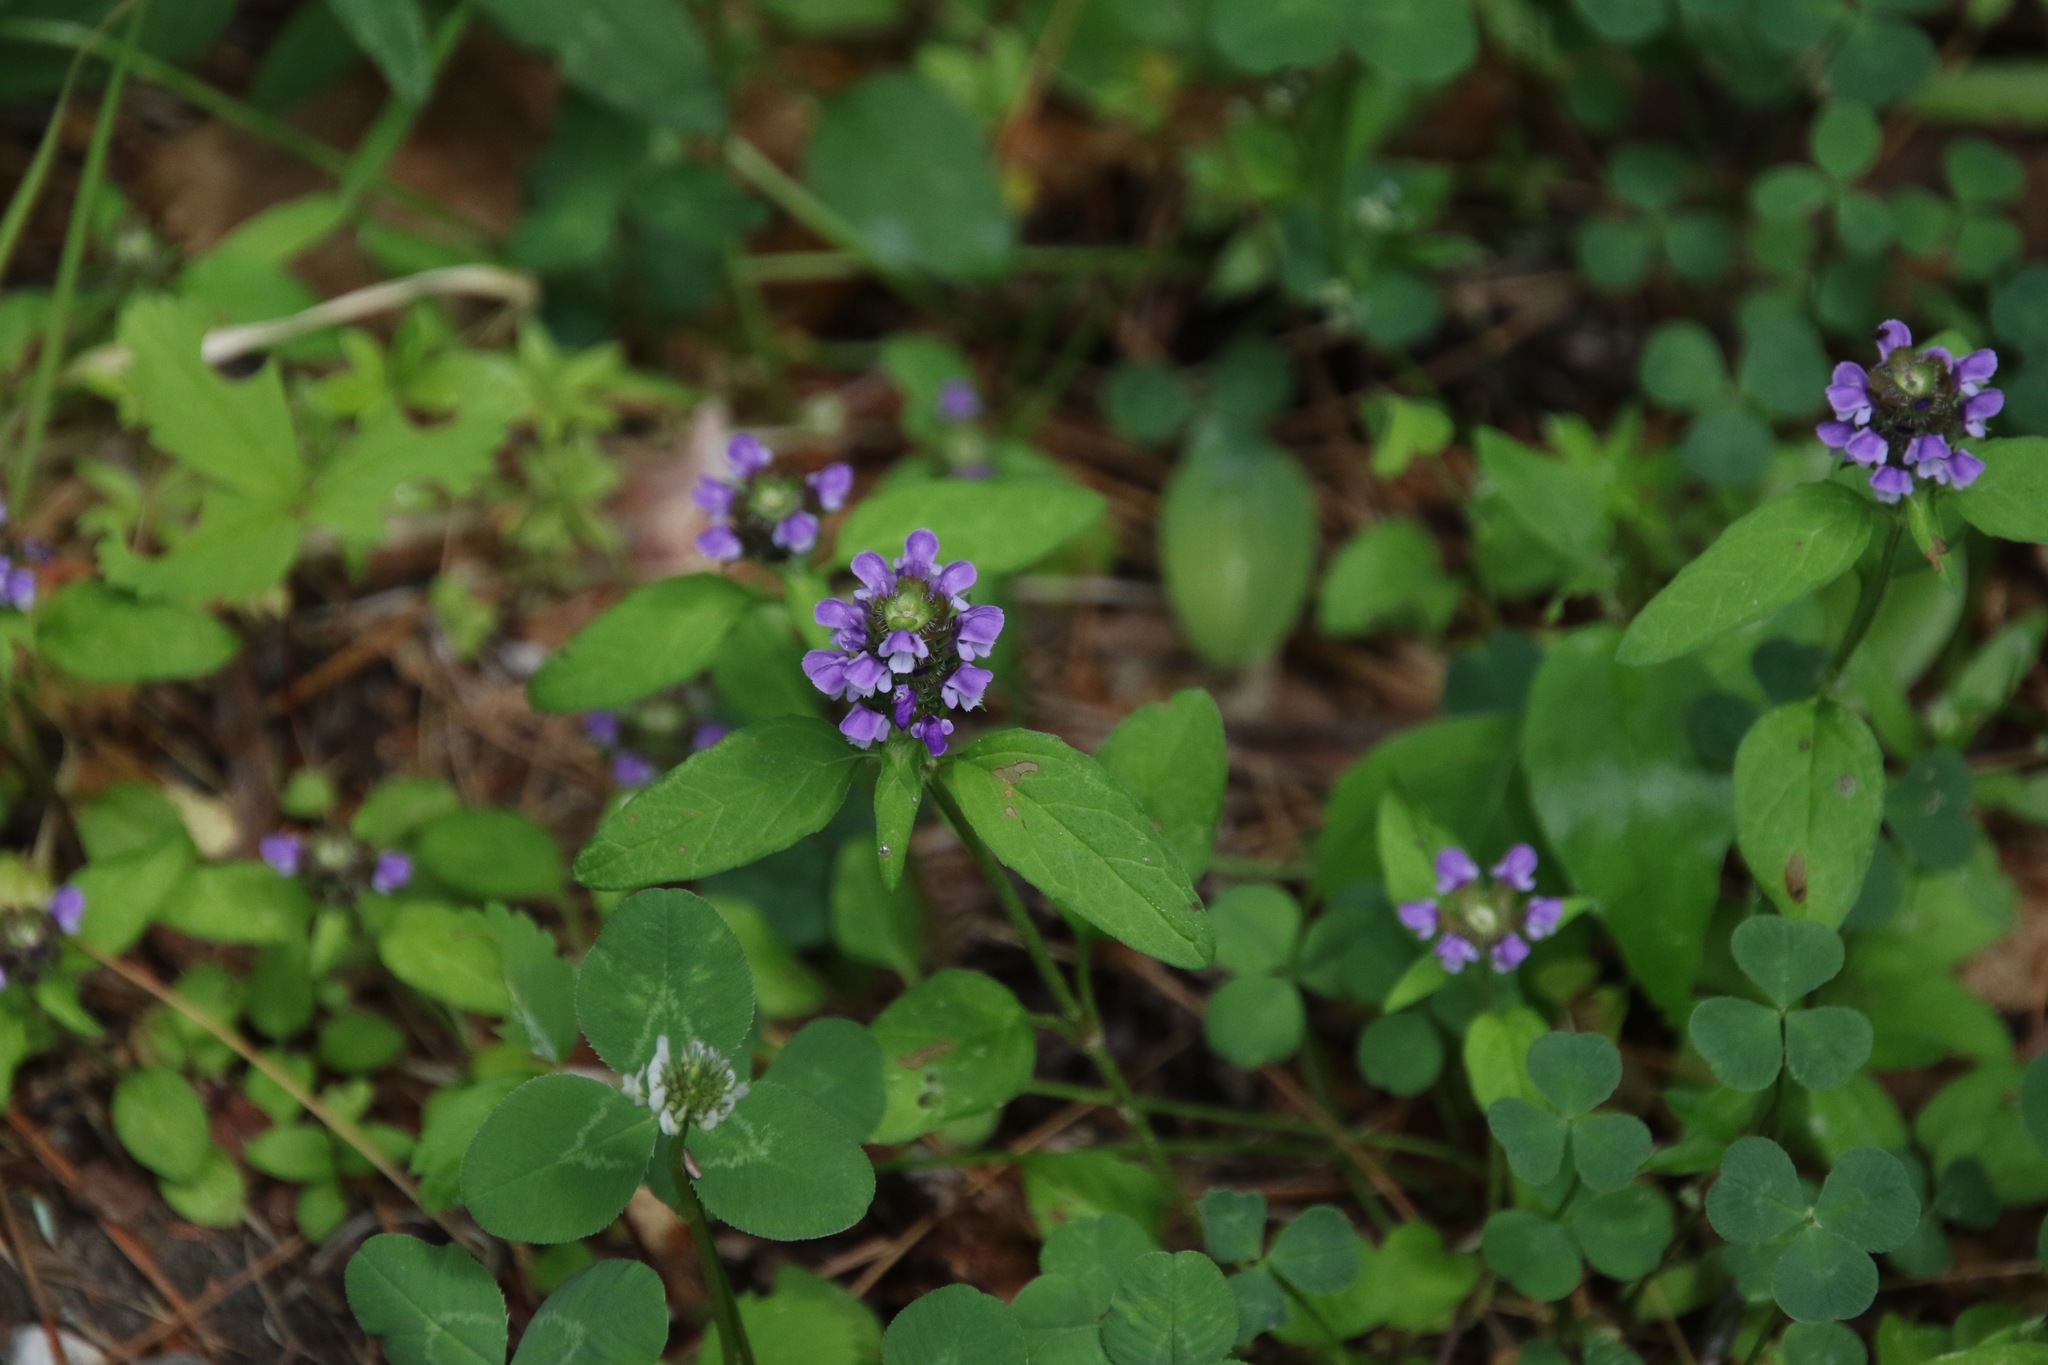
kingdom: Plantae
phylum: Tracheophyta
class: Magnoliopsida
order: Lamiales
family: Lamiaceae
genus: Prunella
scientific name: Prunella vulgaris
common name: Heal-all
